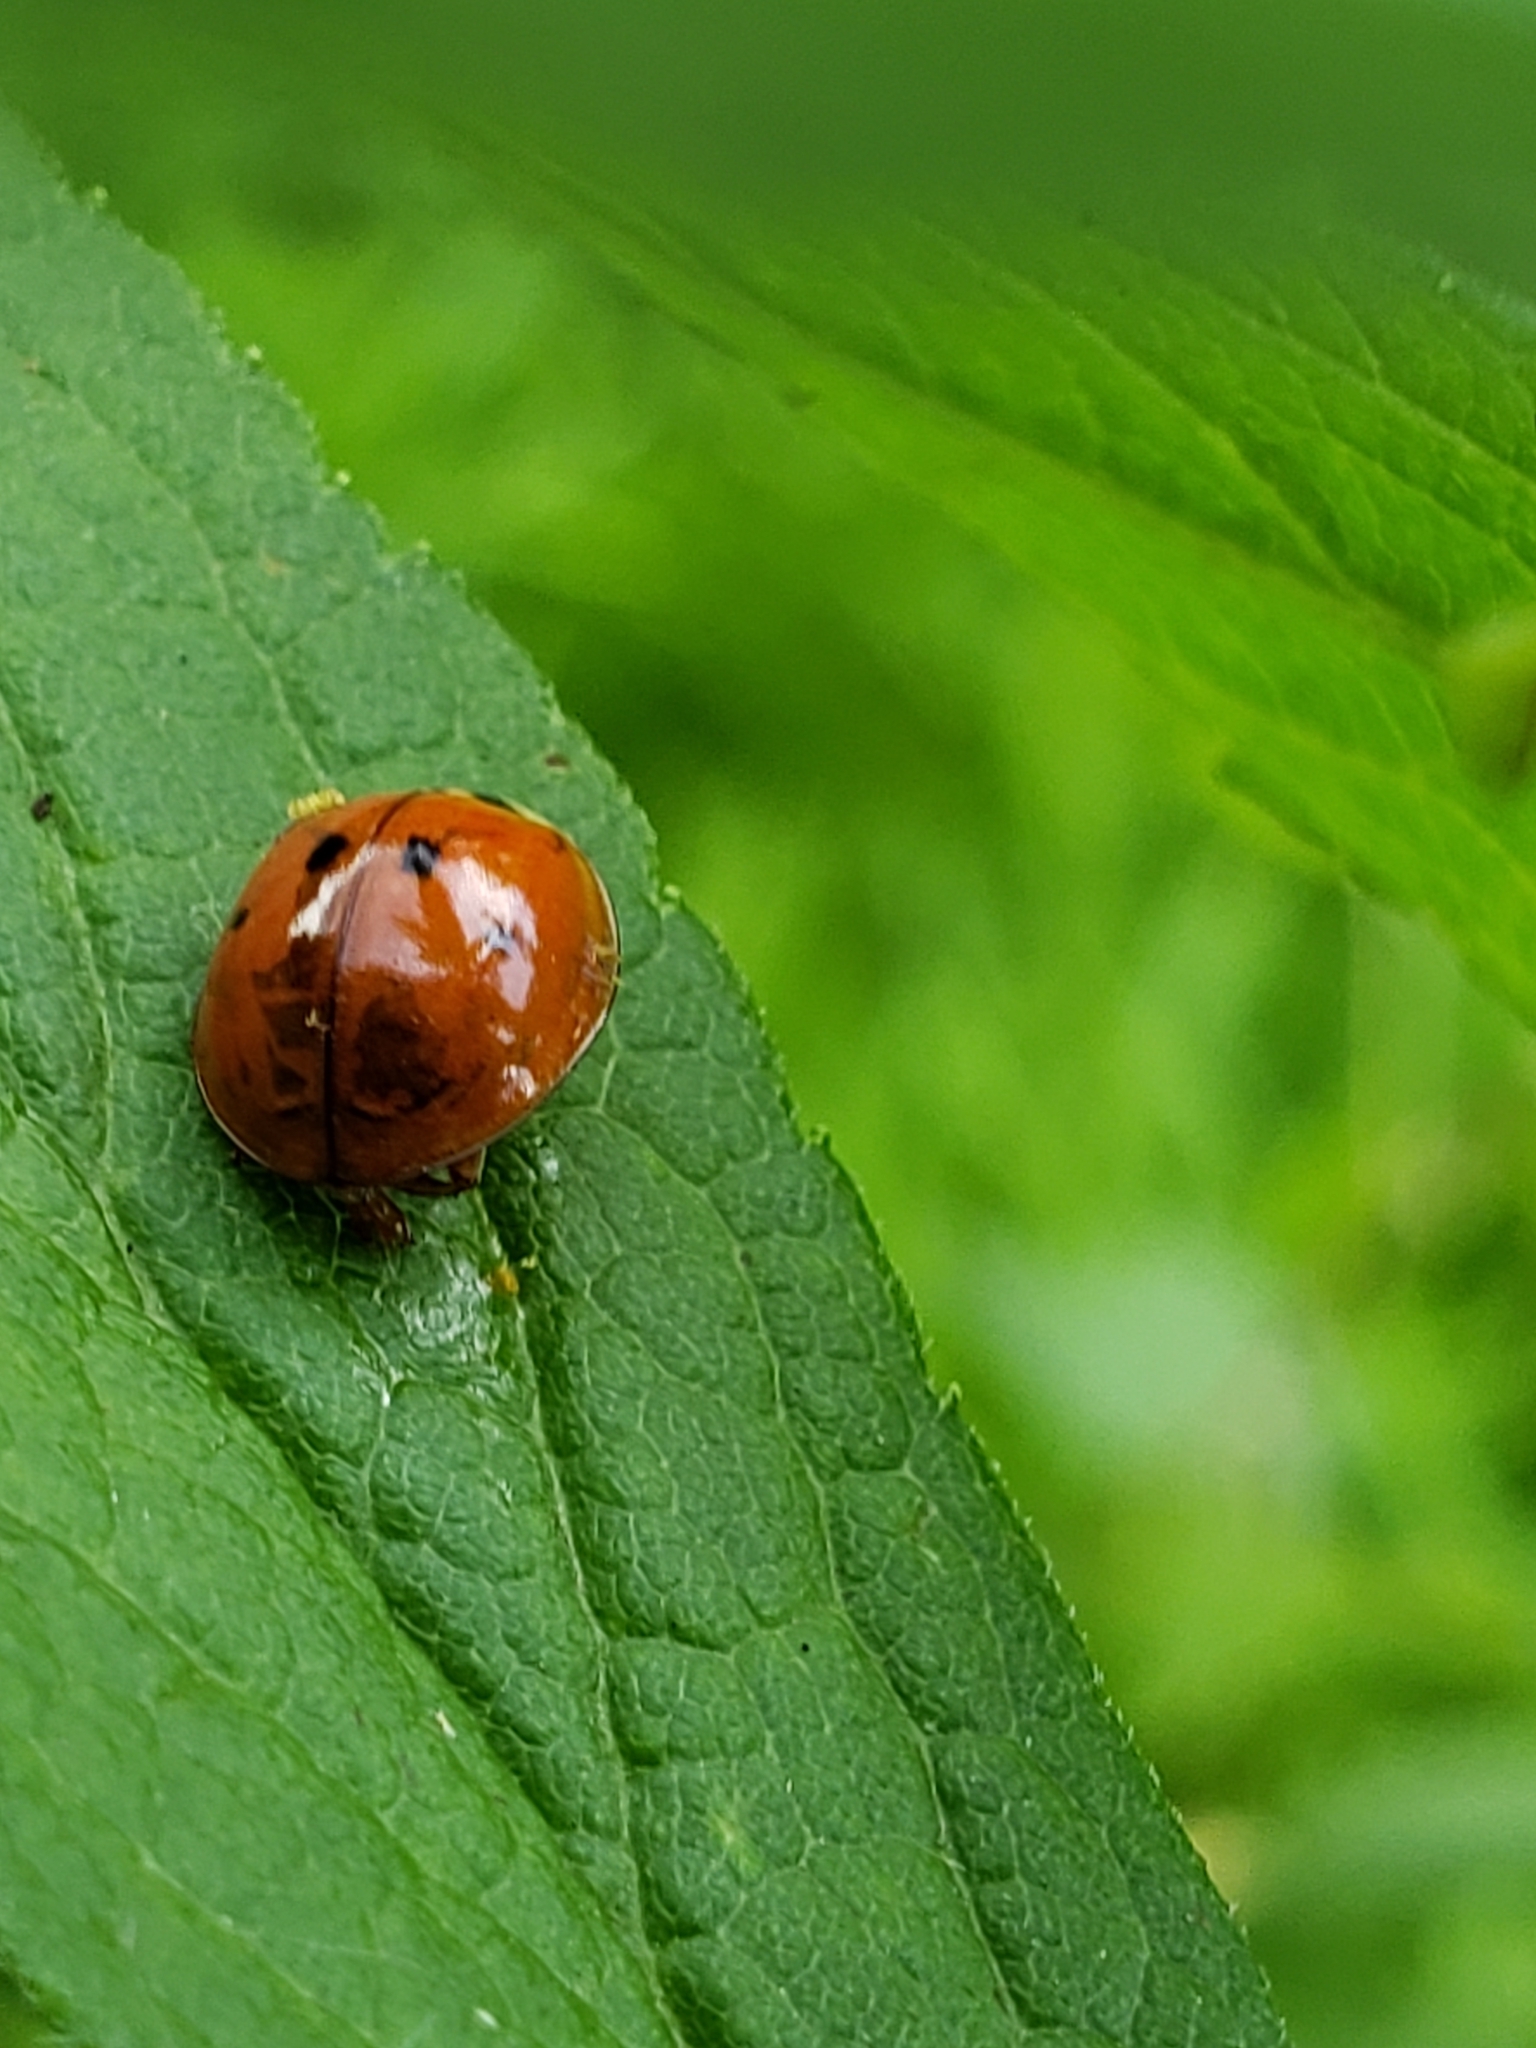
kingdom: Animalia
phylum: Arthropoda
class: Insecta
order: Coleoptera
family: Coccinellidae
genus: Harmonia
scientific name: Harmonia axyridis
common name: Harlequin ladybird
